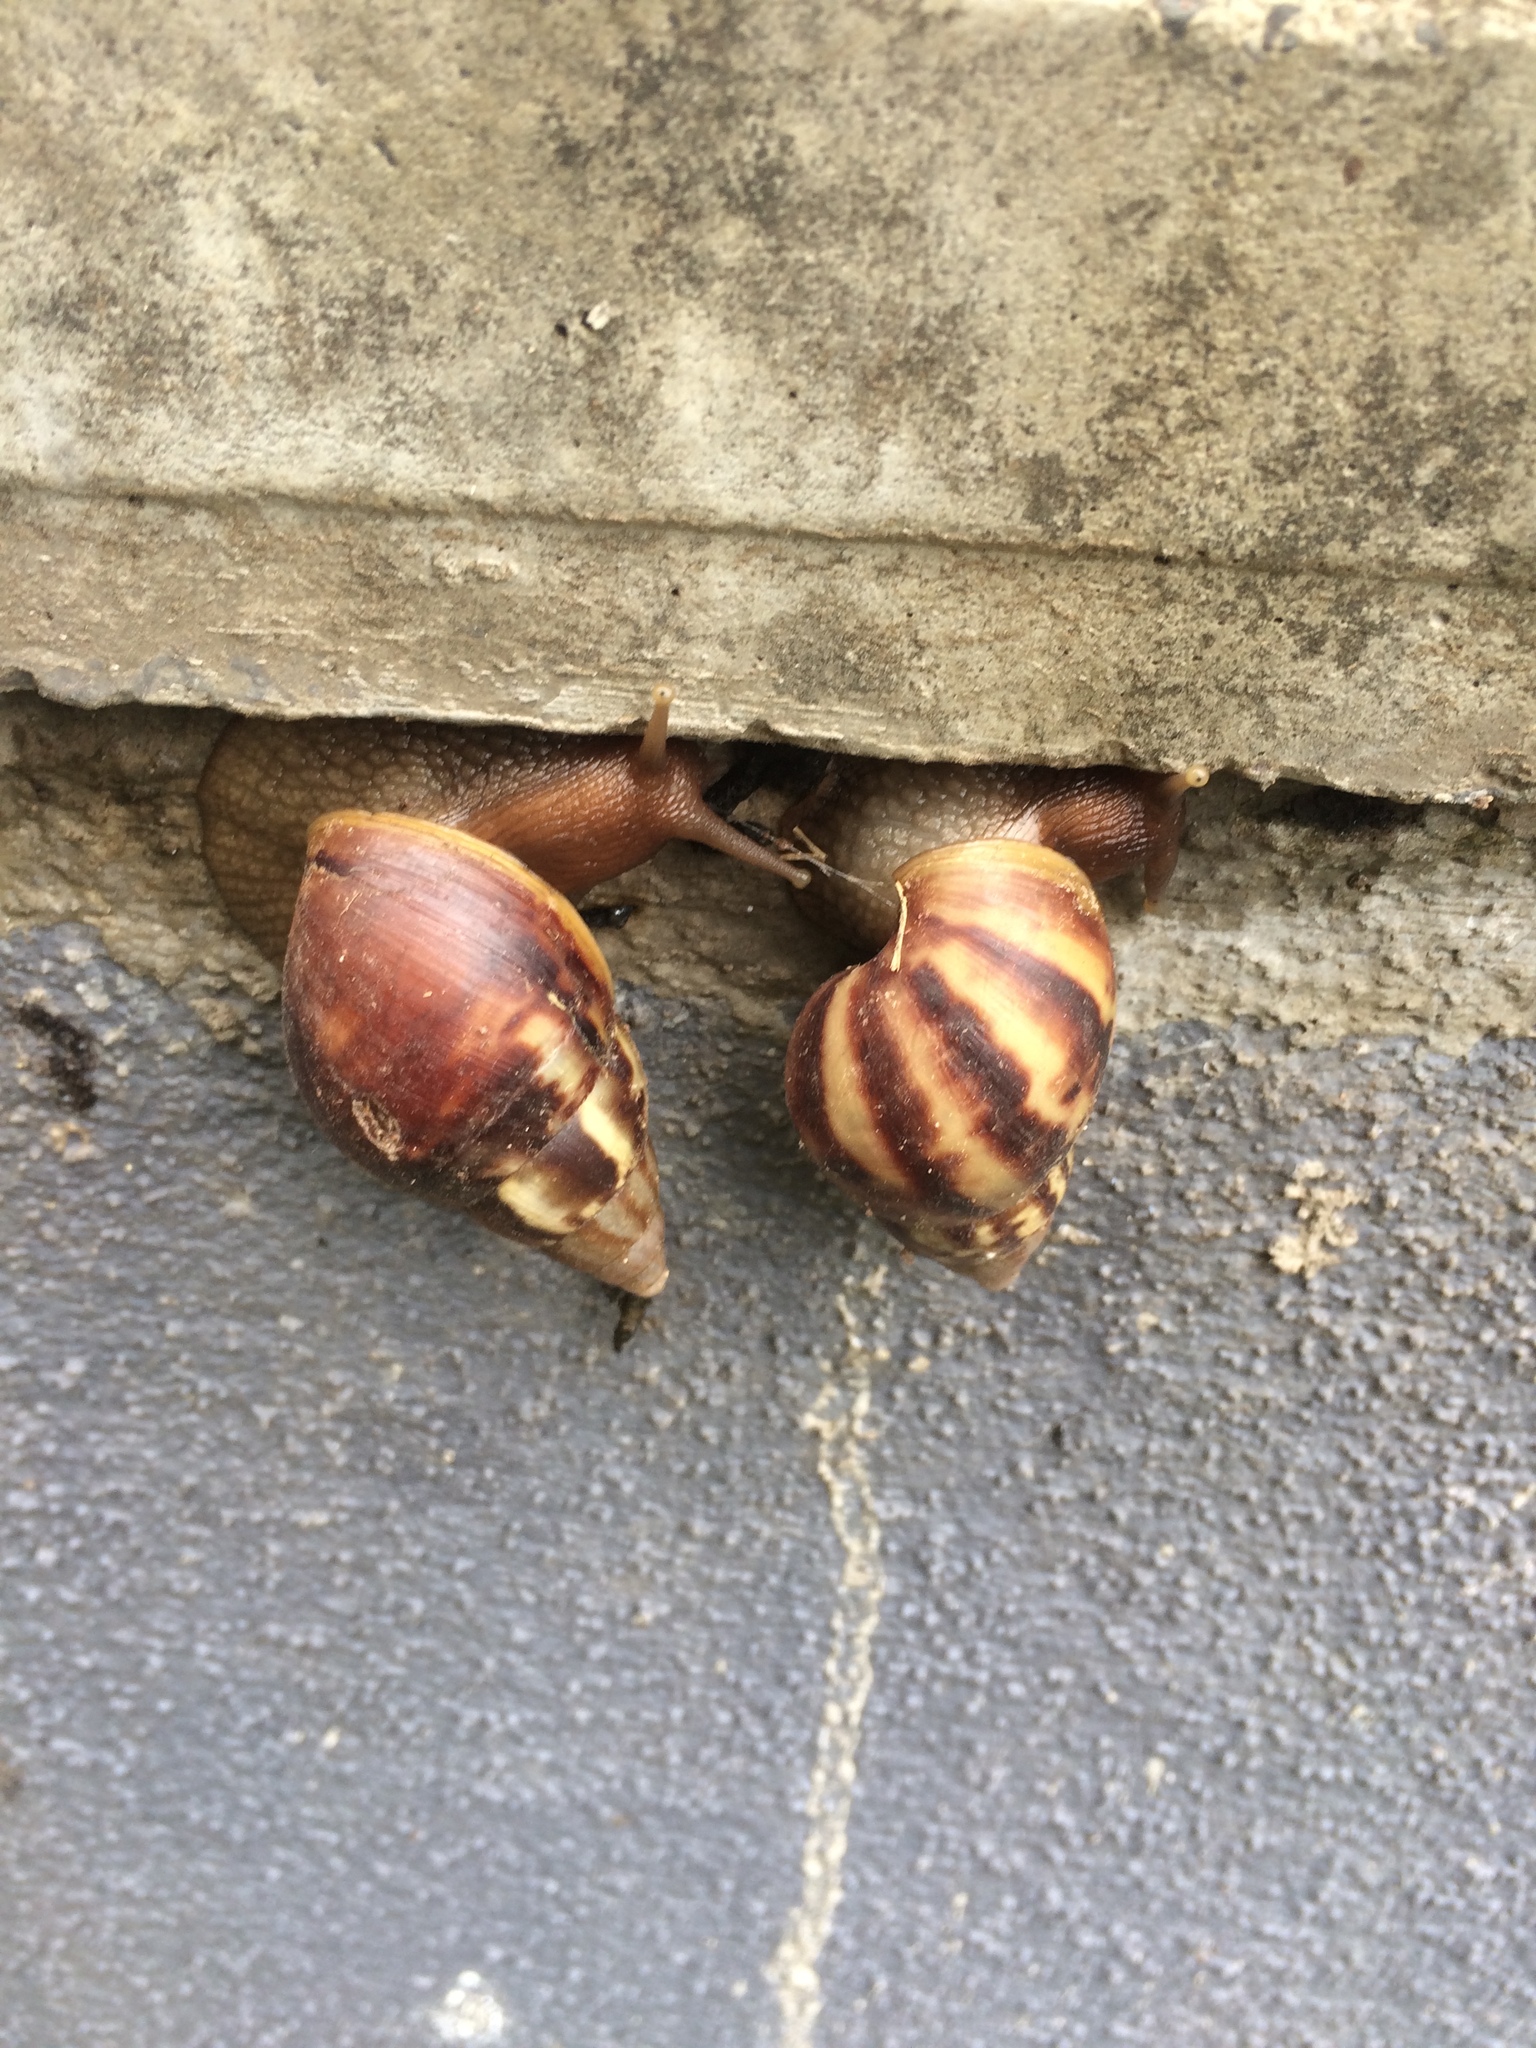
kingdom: Animalia
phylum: Mollusca
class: Gastropoda
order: Stylommatophora
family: Achatinidae
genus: Lissachatina
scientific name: Lissachatina fulica
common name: Giant african snail
